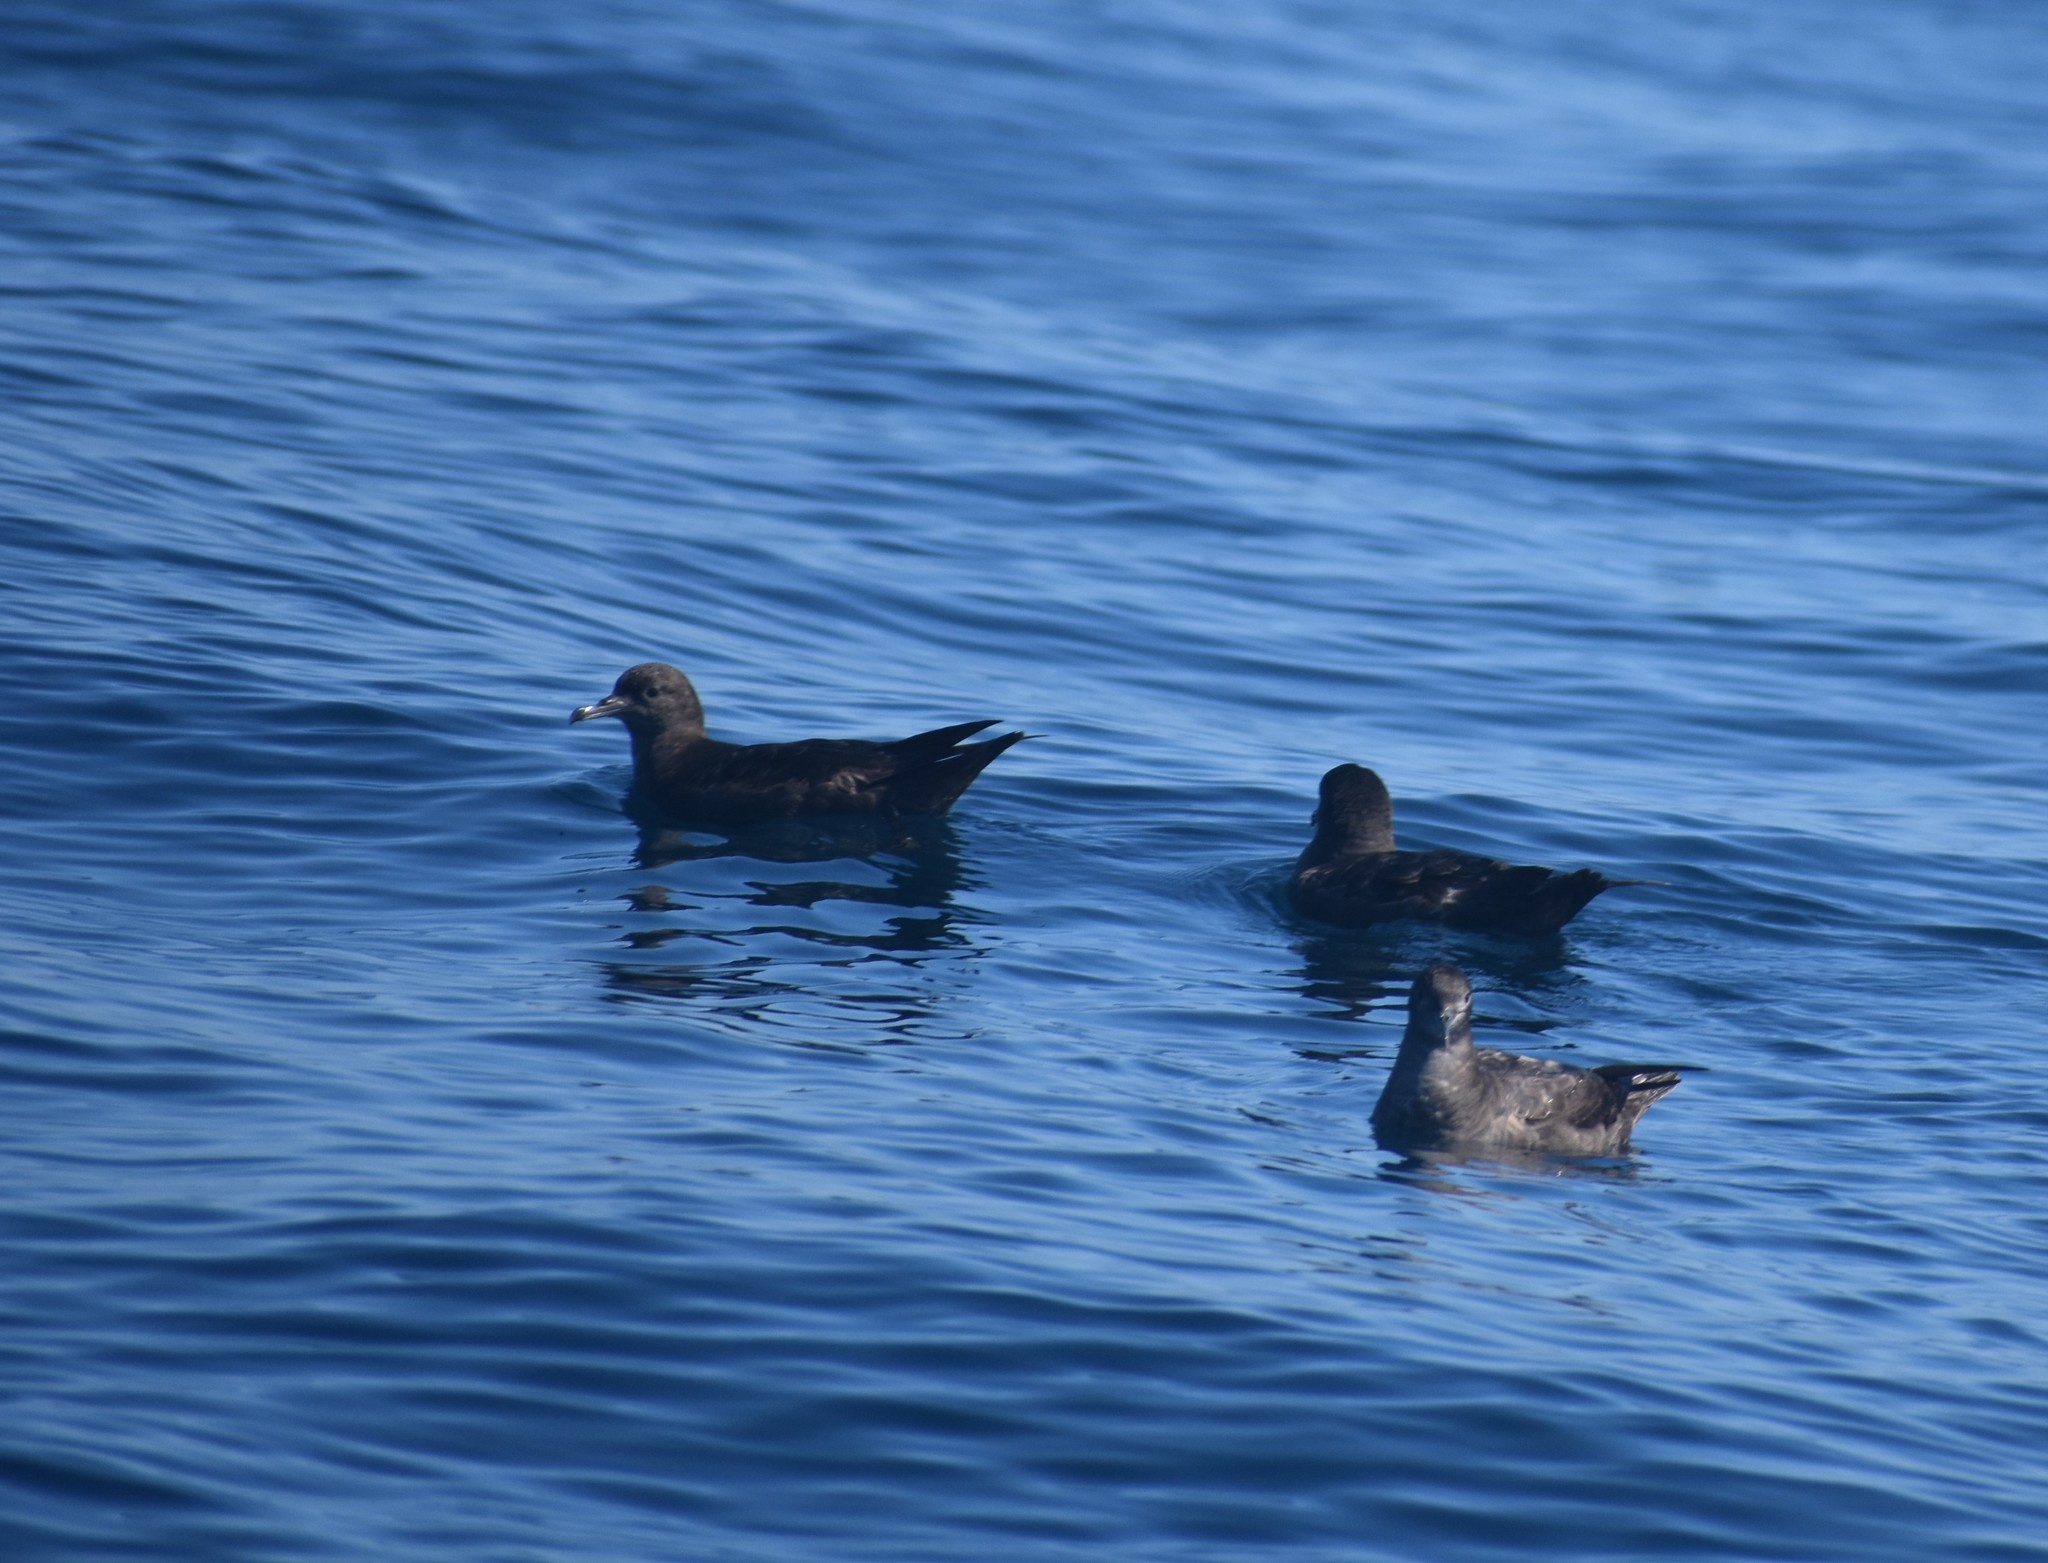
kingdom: Animalia
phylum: Chordata
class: Aves
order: Procellariiformes
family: Procellariidae
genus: Puffinus
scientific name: Puffinus griseus
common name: Sooty shearwater
